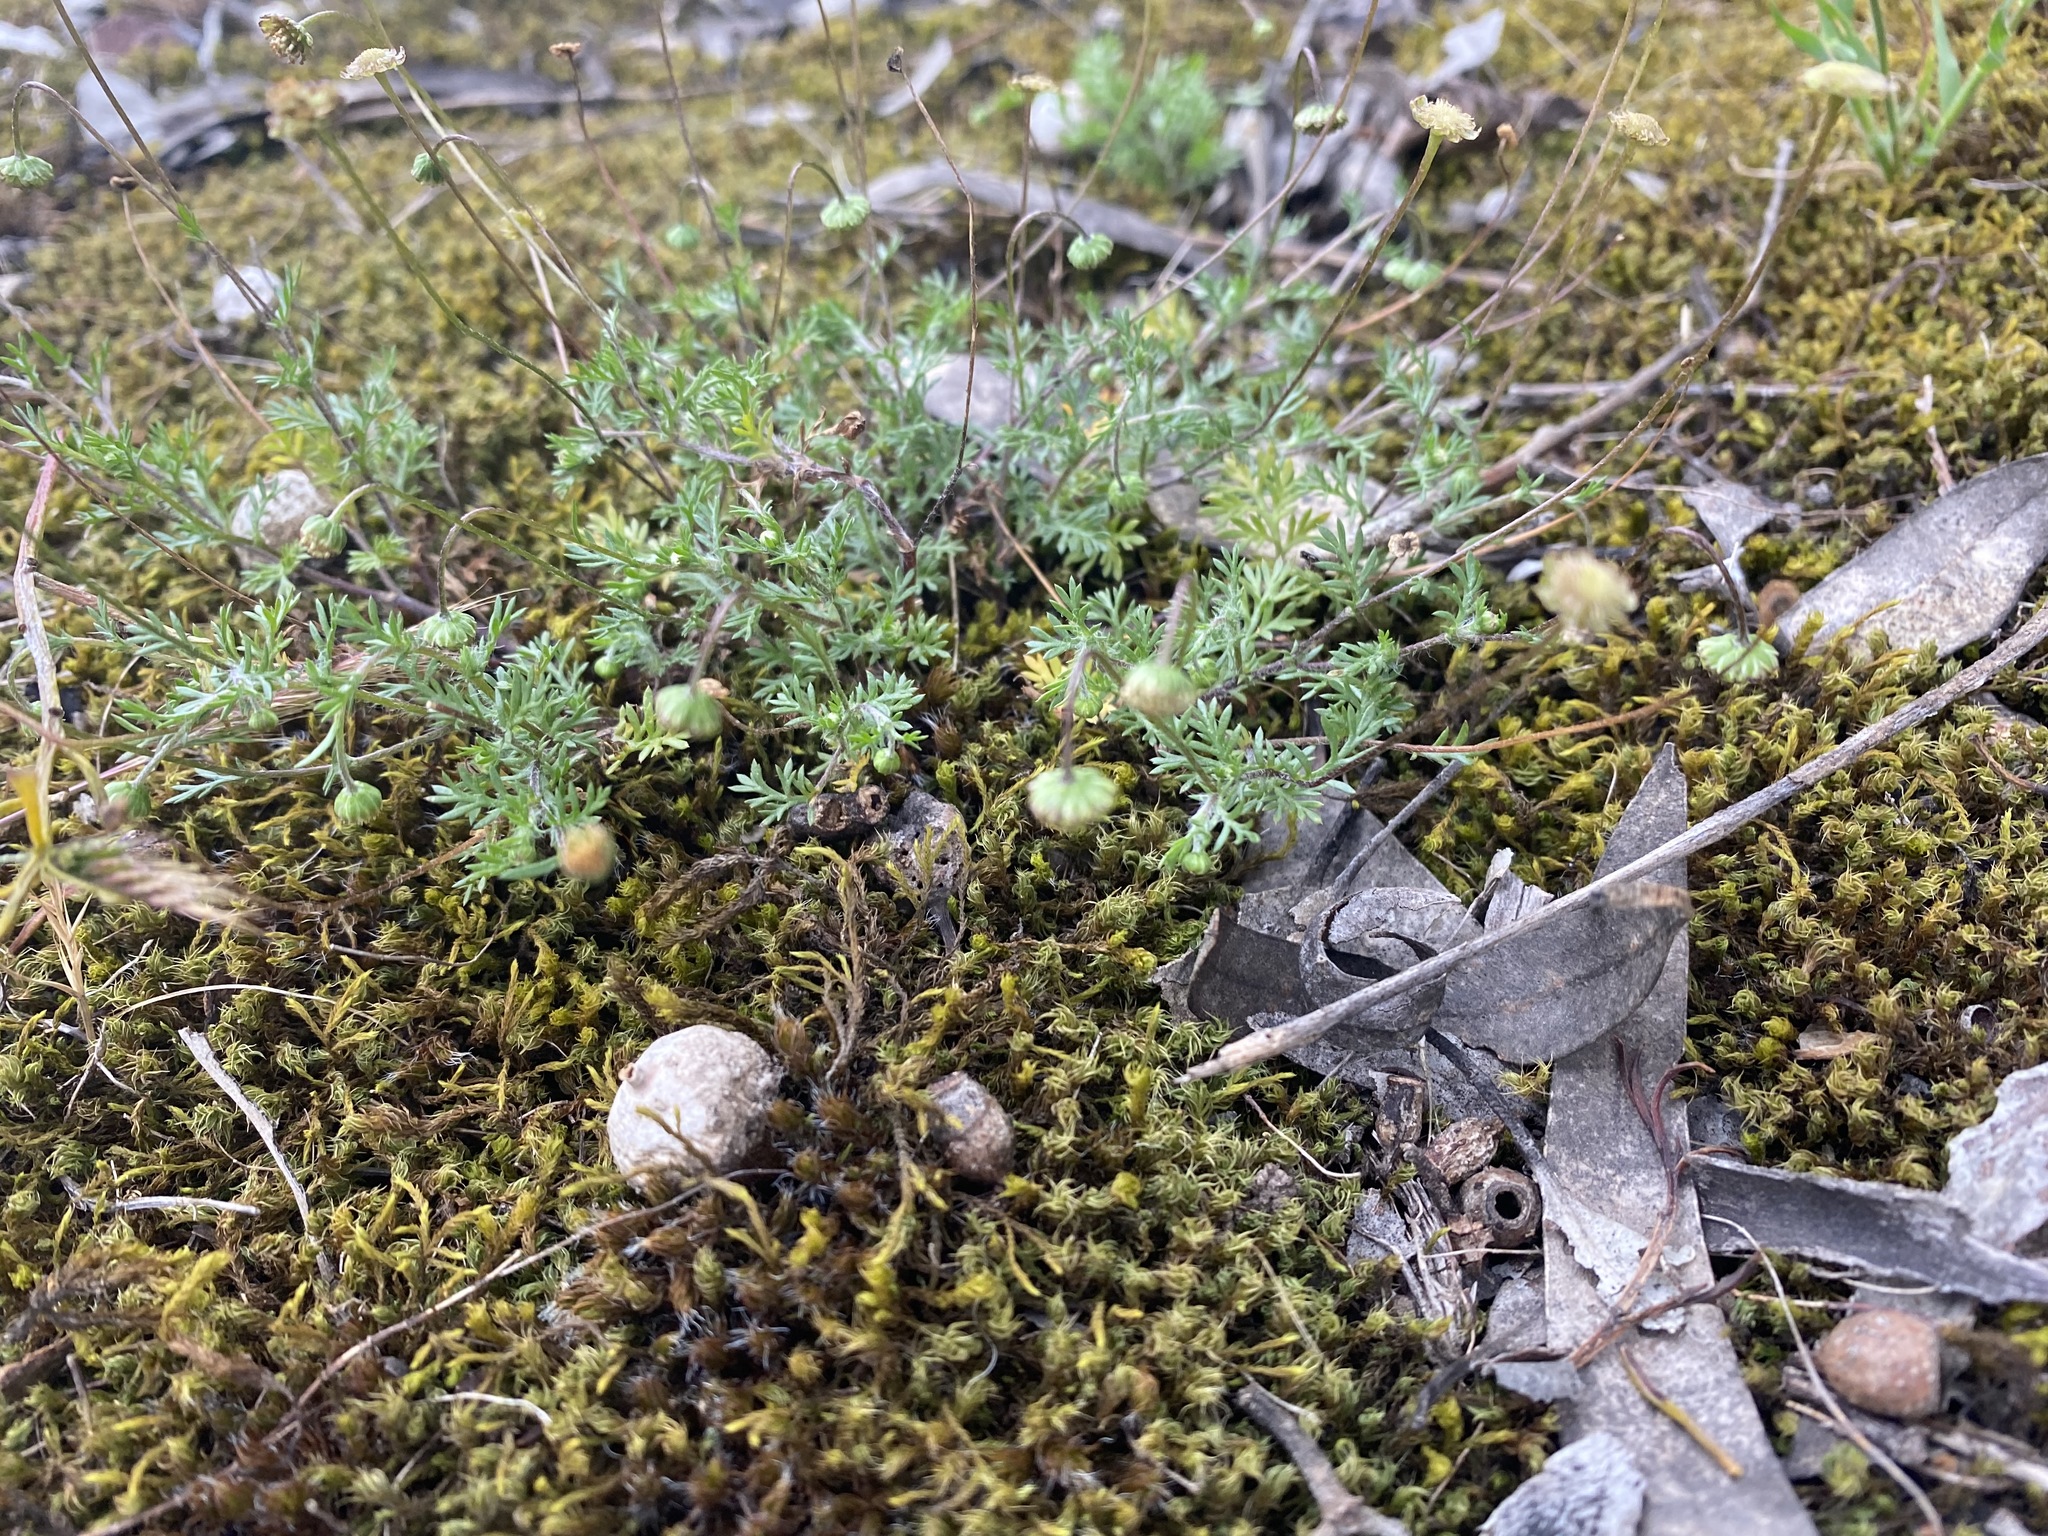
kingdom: Plantae
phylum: Tracheophyta
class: Magnoliopsida
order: Asterales
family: Asteraceae
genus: Cotula
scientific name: Cotula australis
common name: Australian waterbuttons
